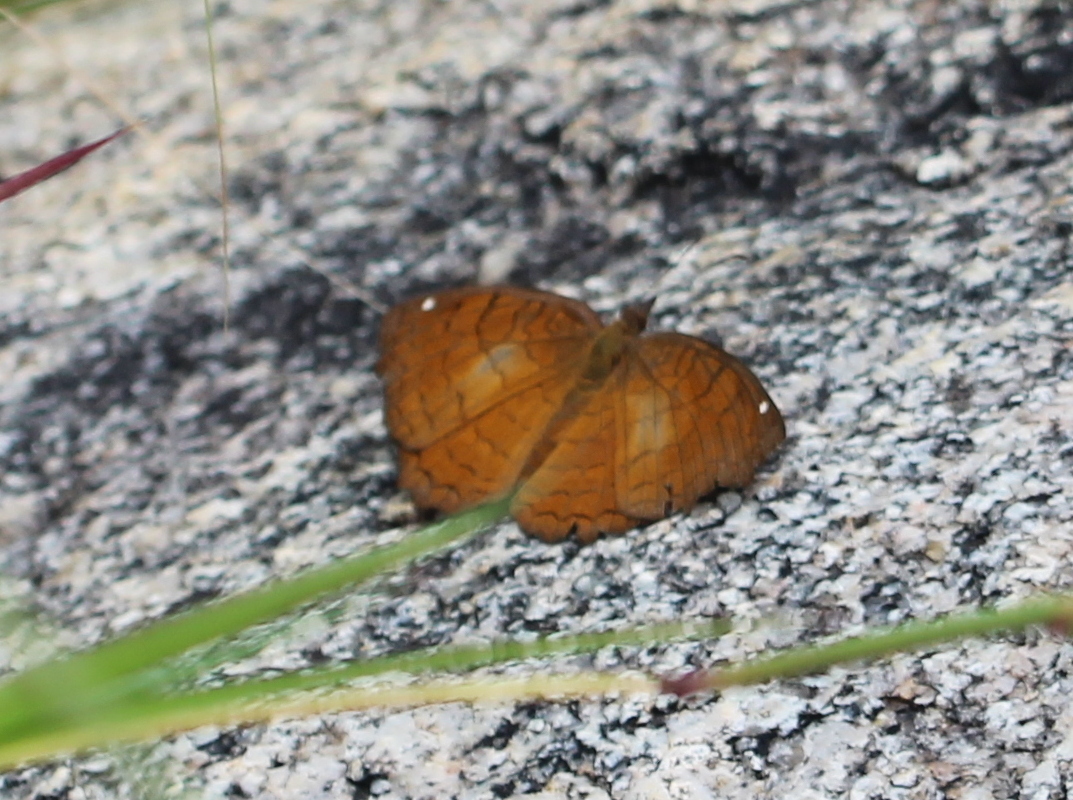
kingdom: Animalia
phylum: Arthropoda
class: Insecta
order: Lepidoptera
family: Nymphalidae
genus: Ariadne
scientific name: Ariadne ariadne
